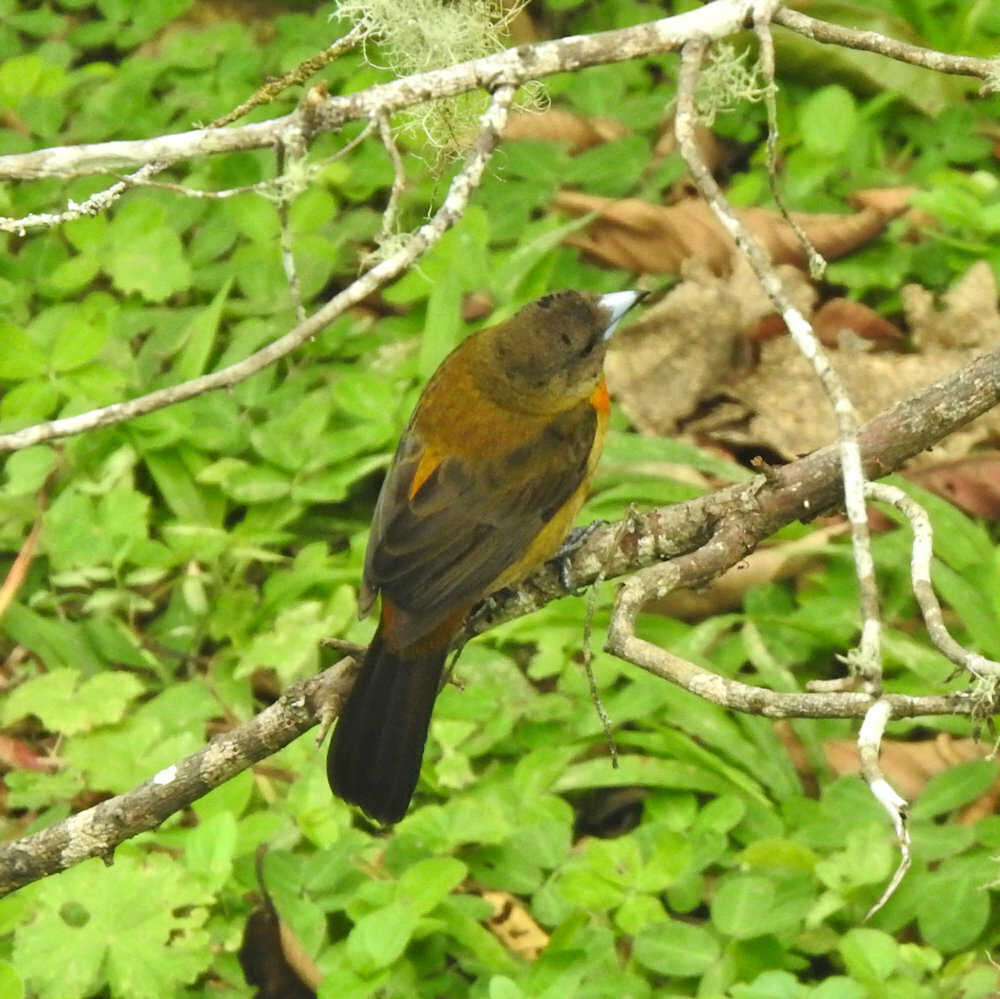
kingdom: Animalia
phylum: Chordata
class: Aves
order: Passeriformes
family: Thraupidae
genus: Ramphocelus
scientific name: Ramphocelus passerinii
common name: Passerini's tanager
